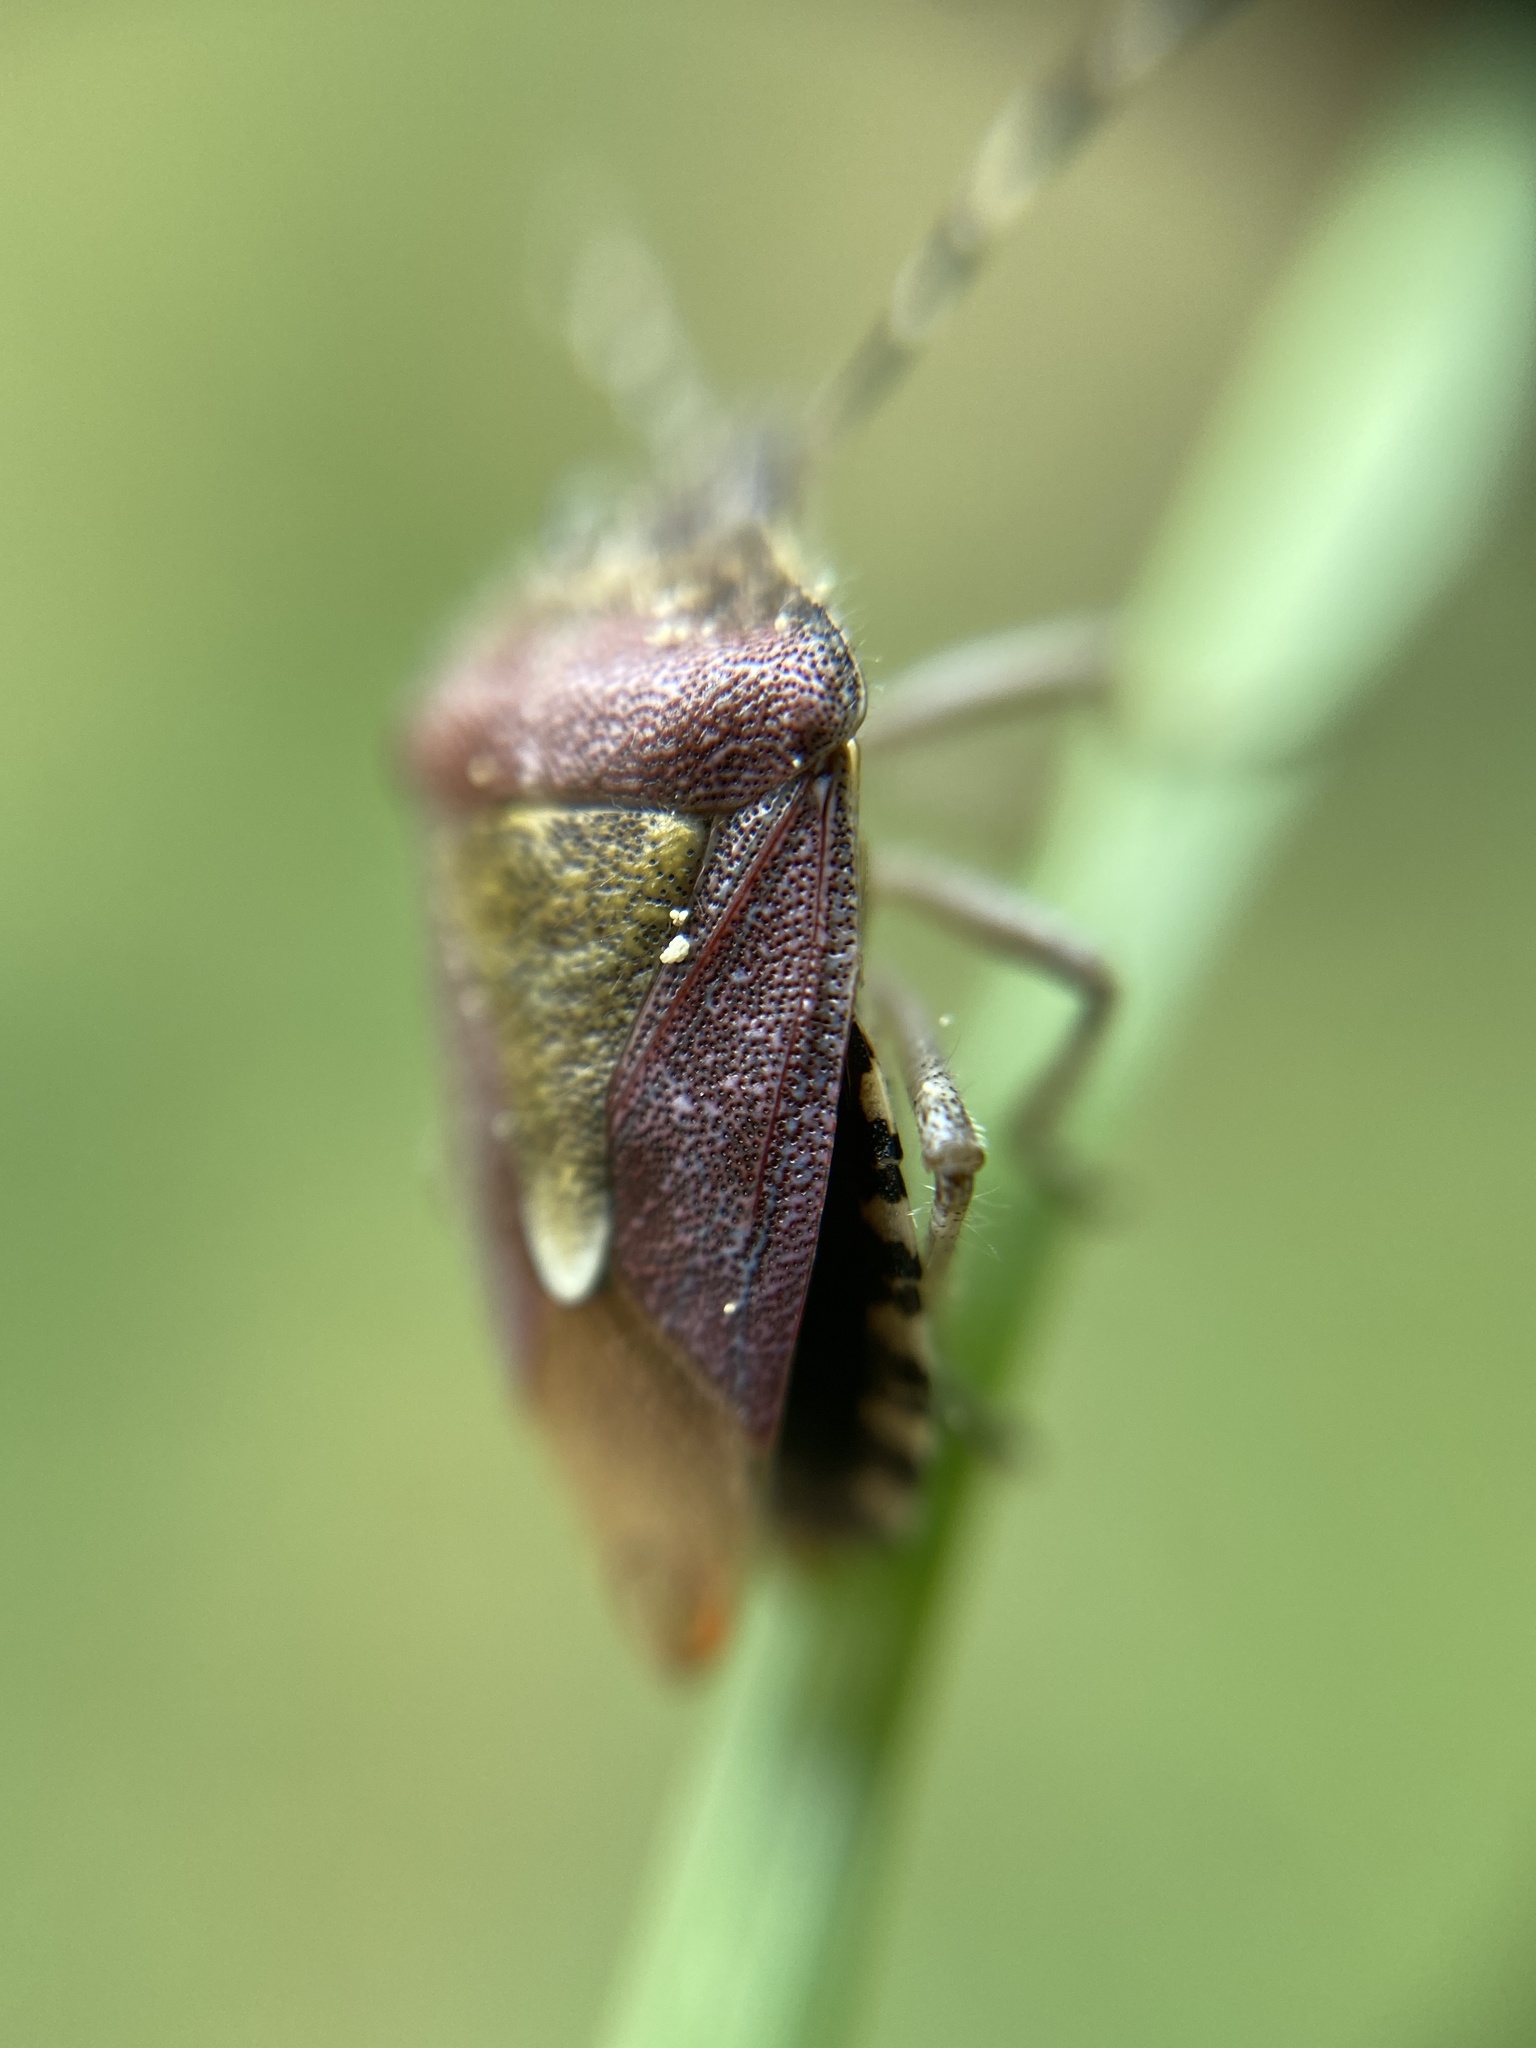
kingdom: Animalia
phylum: Arthropoda
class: Insecta
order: Hemiptera
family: Pentatomidae
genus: Dolycoris
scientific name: Dolycoris baccarum
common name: Sloe bug
